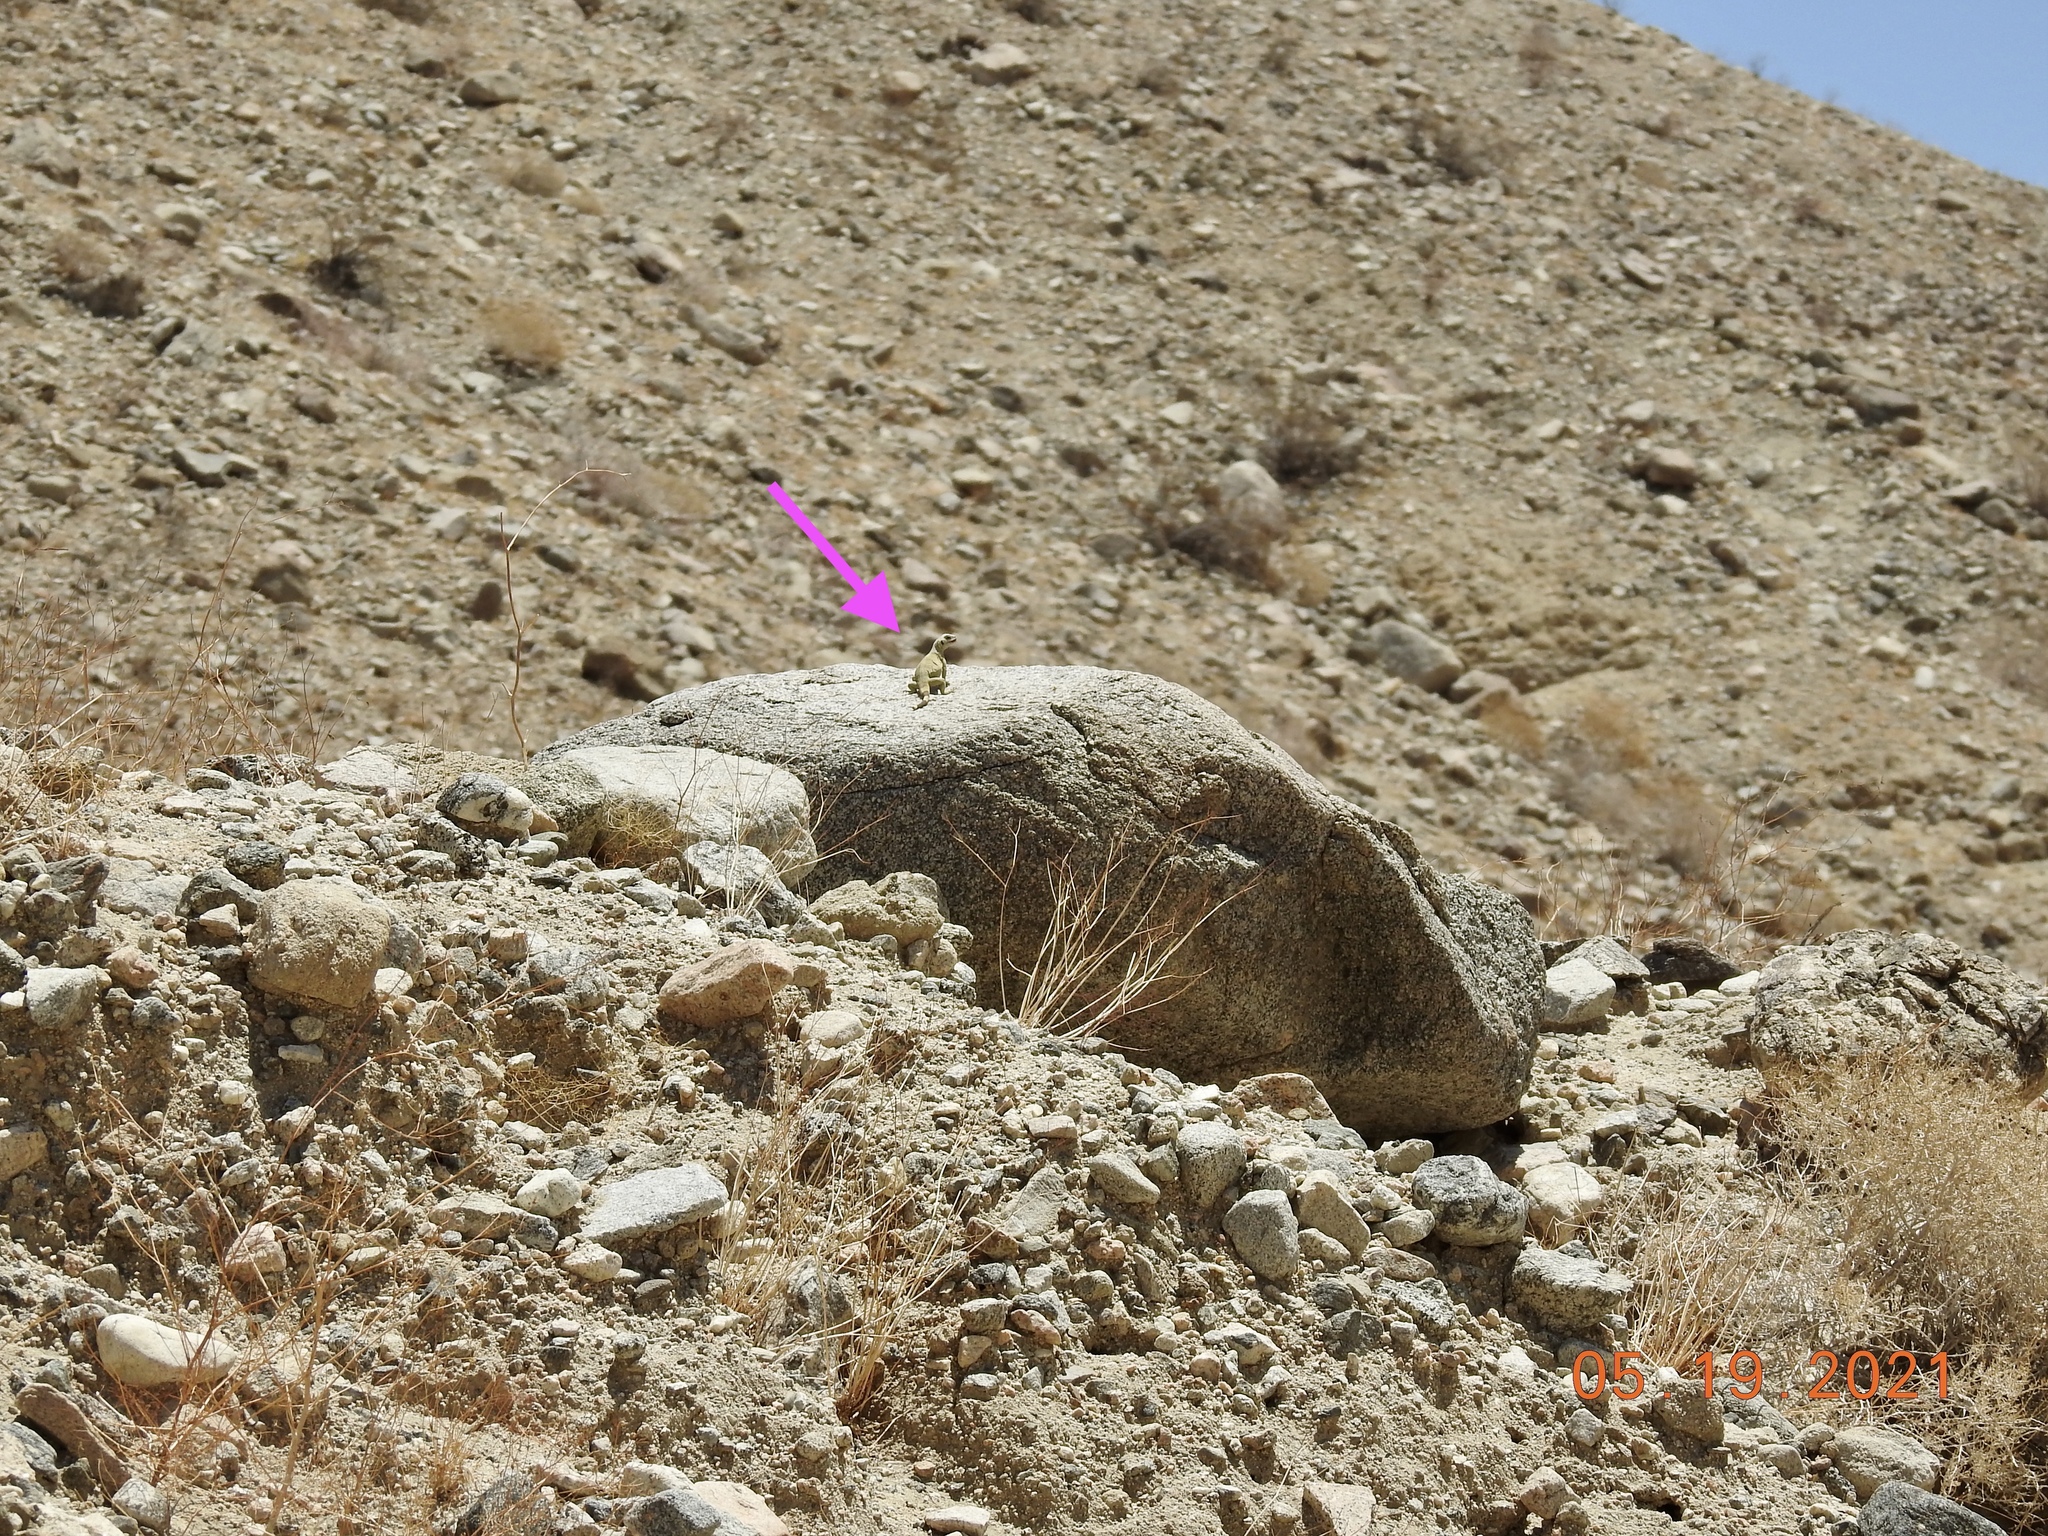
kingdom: Animalia
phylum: Chordata
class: Squamata
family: Iguanidae
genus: Sauromalus
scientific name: Sauromalus ater
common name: Northern chuckwalla
